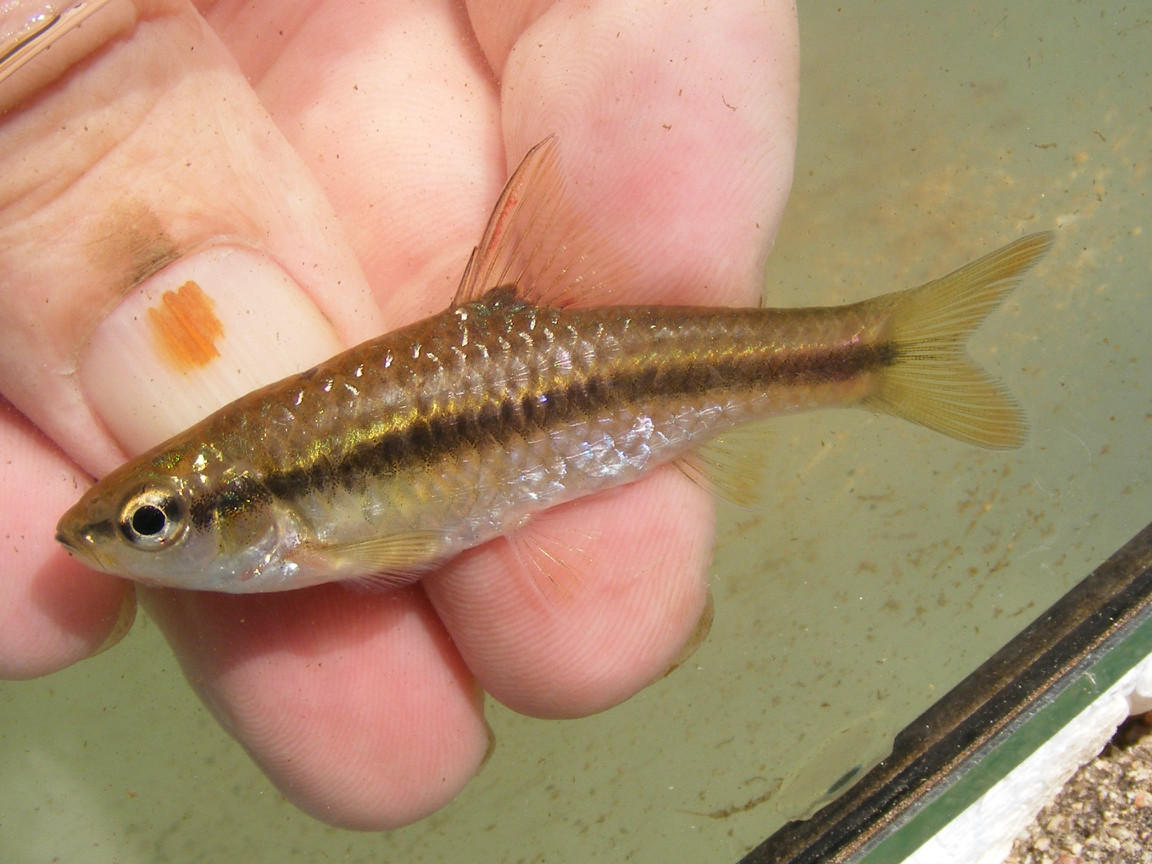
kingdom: Animalia
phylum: Chordata
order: Cypriniformes
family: Cyprinidae
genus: Enteromius
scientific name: Enteromius eutaenia
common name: Orangefin barb
